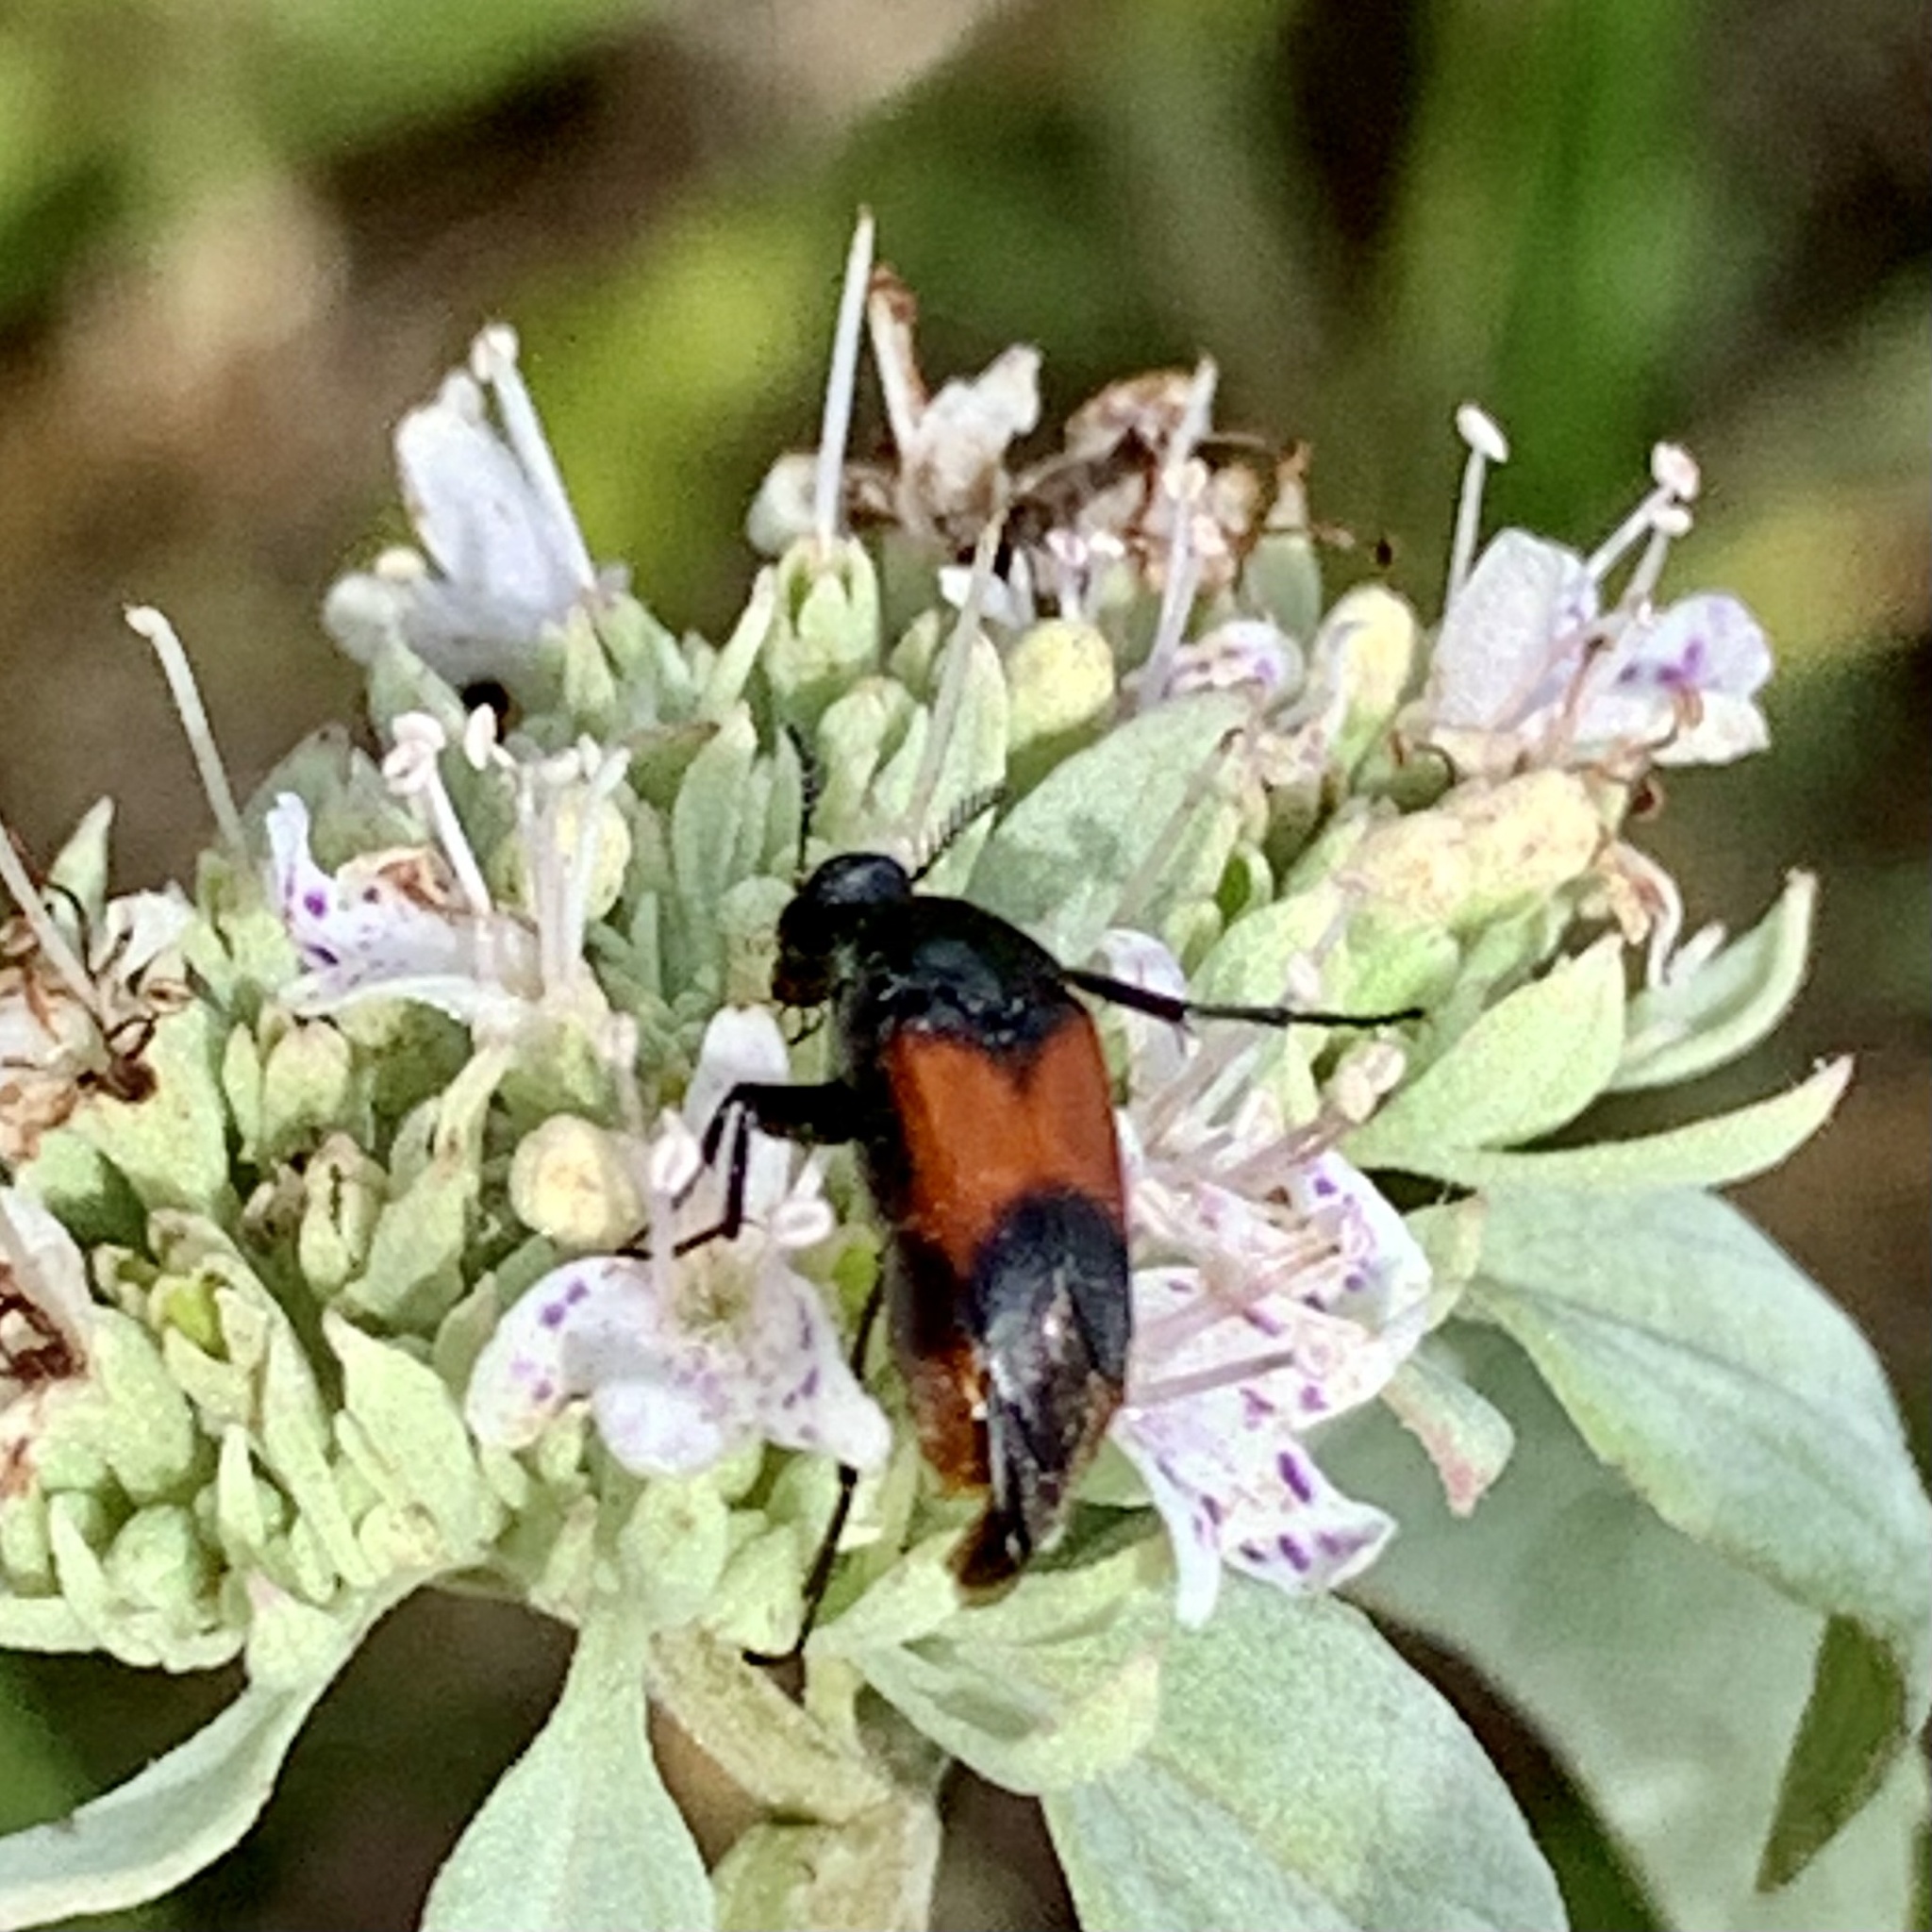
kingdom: Animalia
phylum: Arthropoda
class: Insecta
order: Coleoptera
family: Ripiphoridae
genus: Macrosiagon
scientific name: Macrosiagon cruentum
